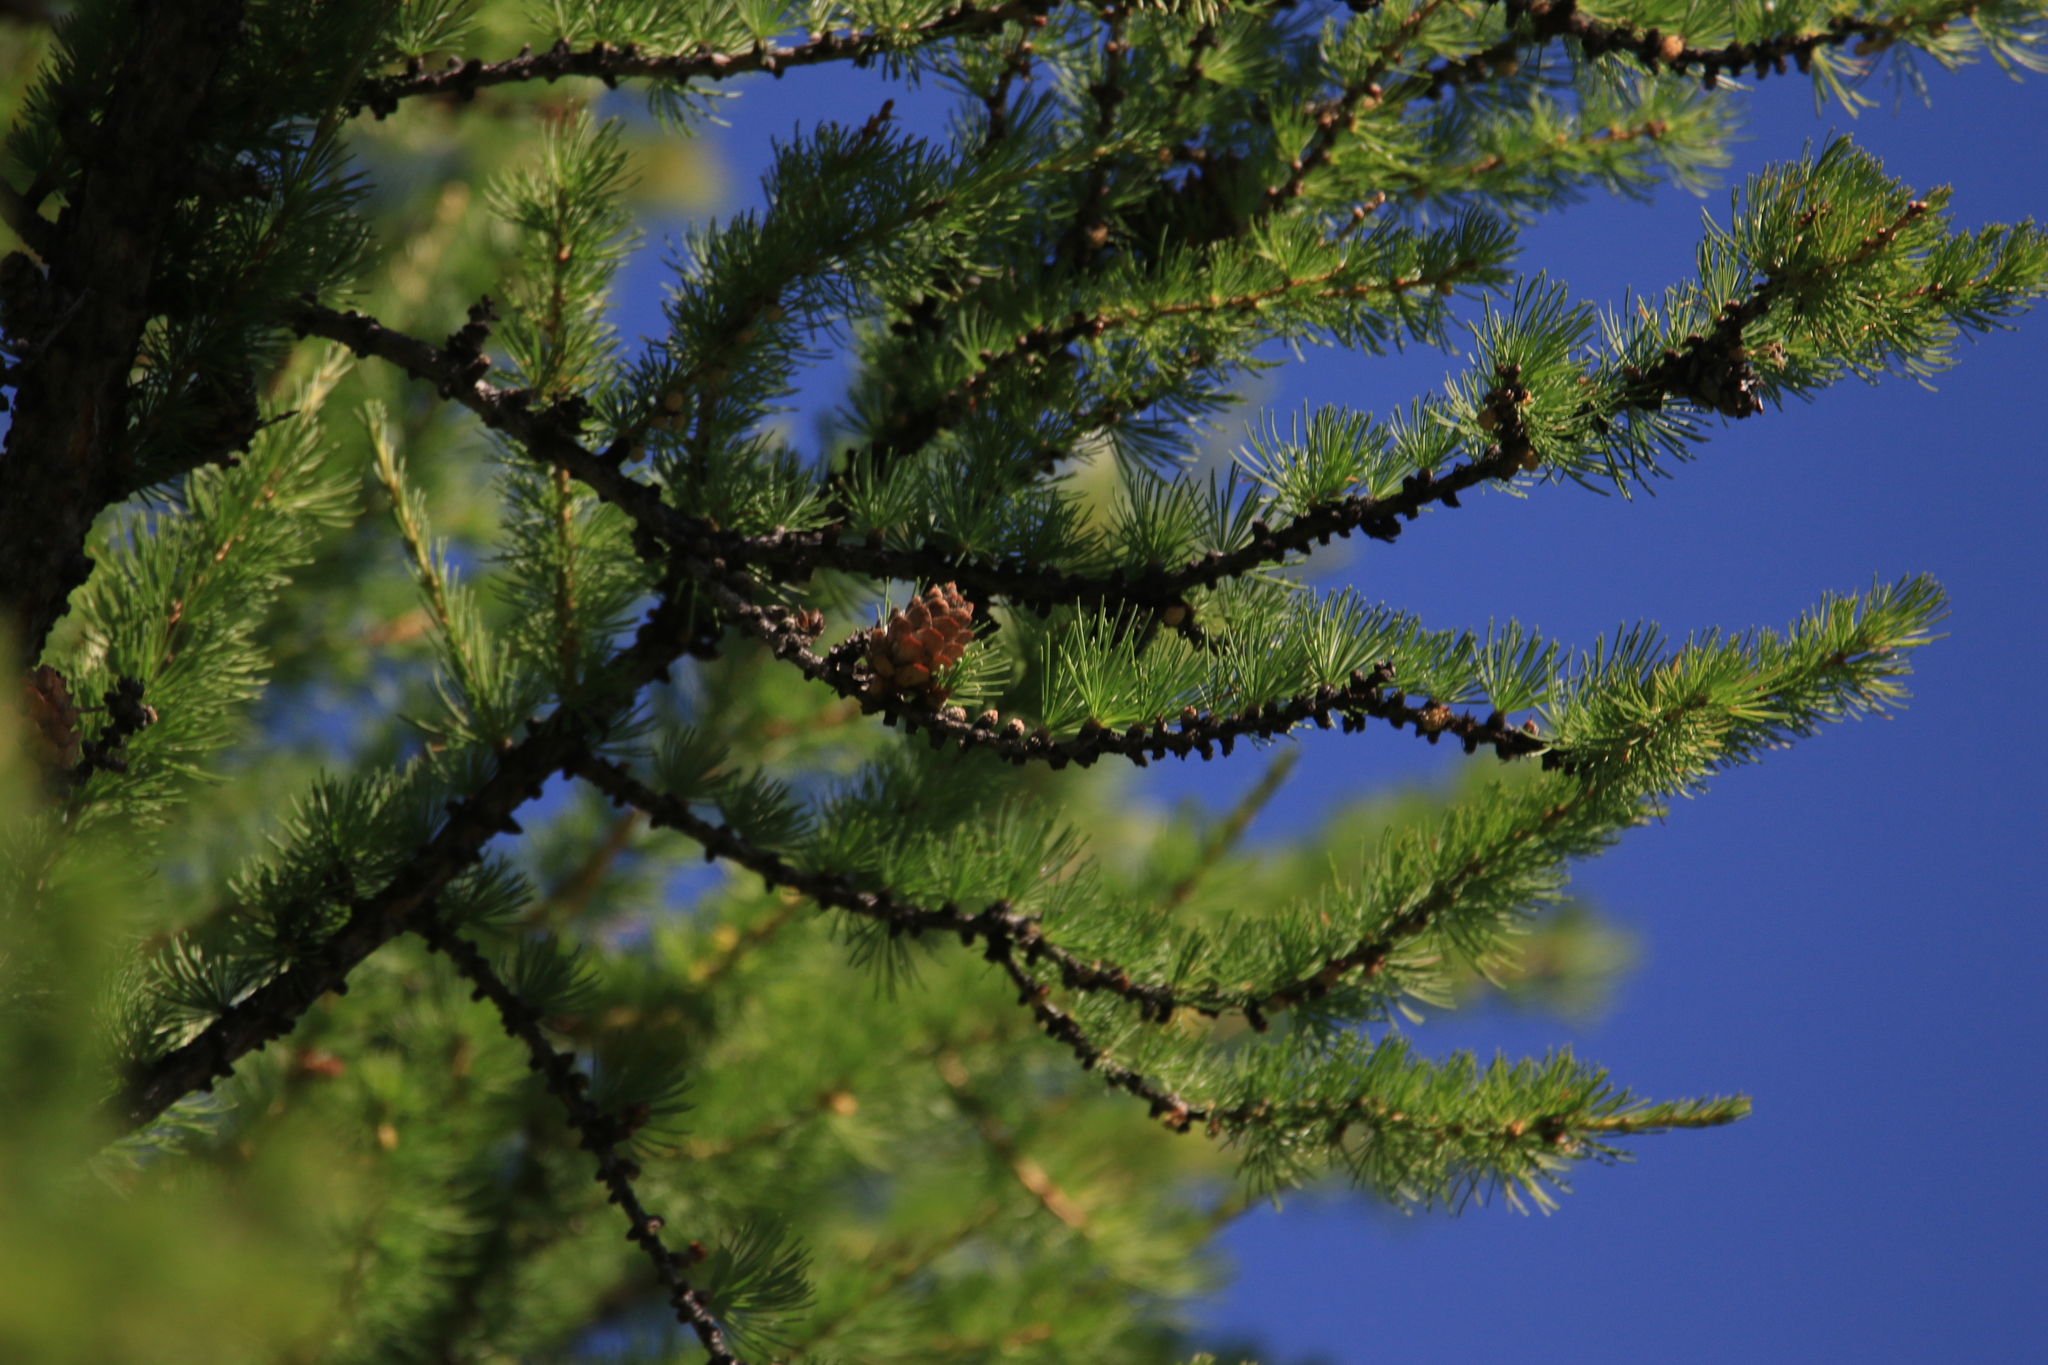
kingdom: Plantae
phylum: Tracheophyta
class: Pinopsida
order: Pinales
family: Pinaceae
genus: Larix
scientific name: Larix sibirica
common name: Siberian larch
